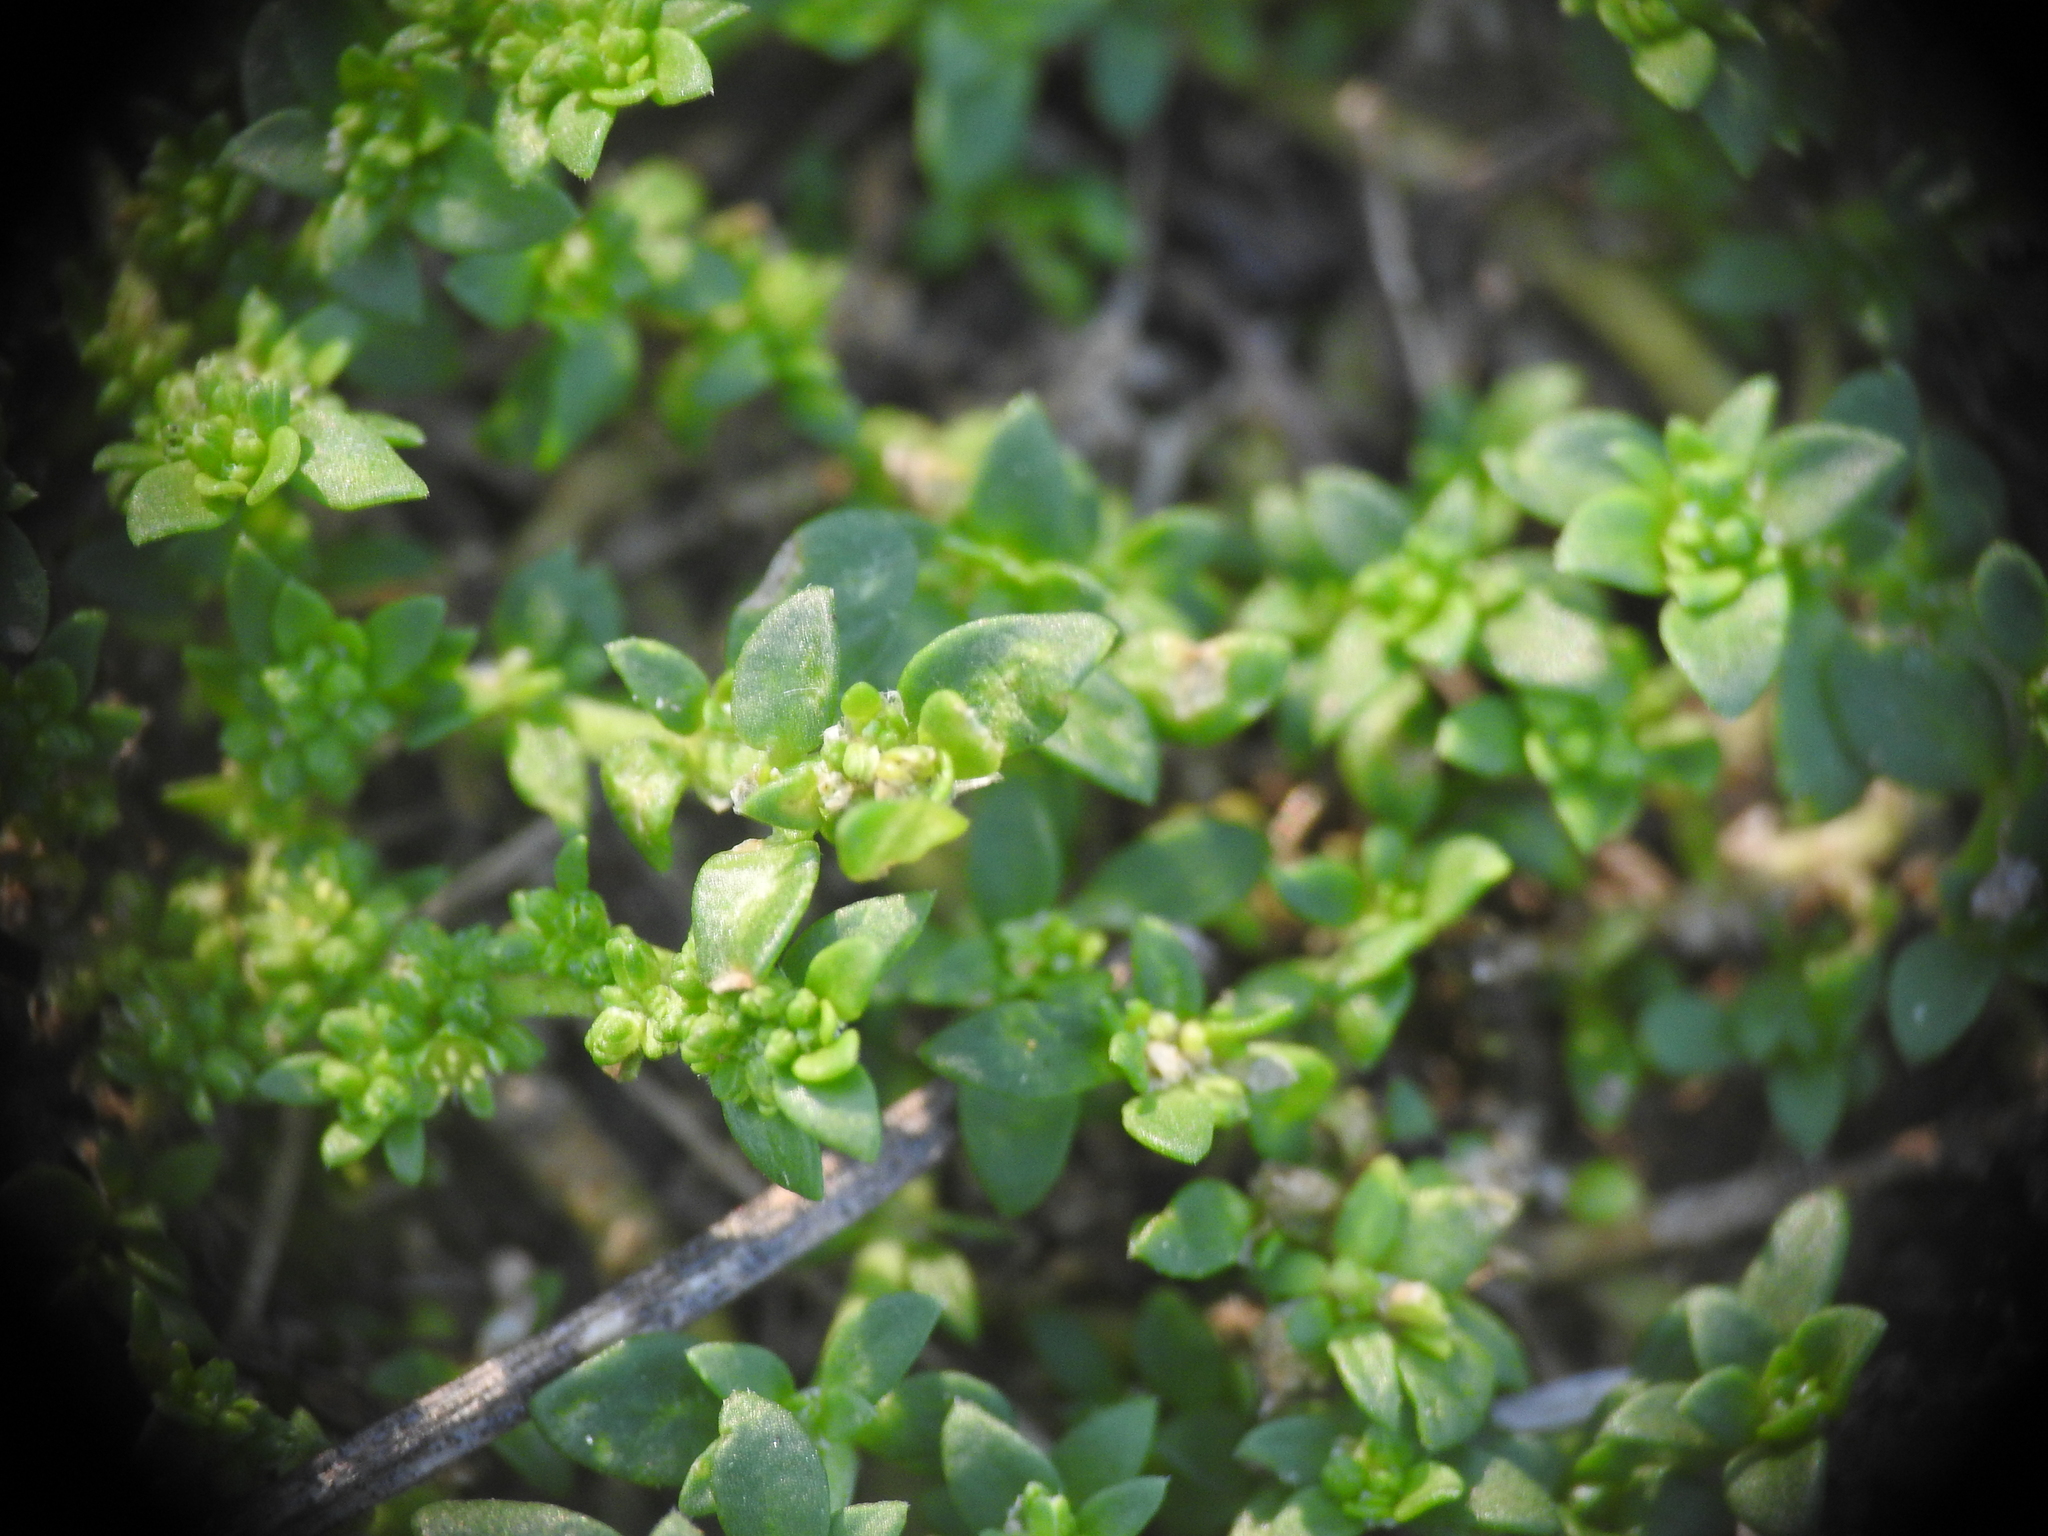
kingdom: Plantae
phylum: Tracheophyta
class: Magnoliopsida
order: Caryophyllales
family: Caryophyllaceae
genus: Herniaria
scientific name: Herniaria glabra
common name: Smooth rupturewort
